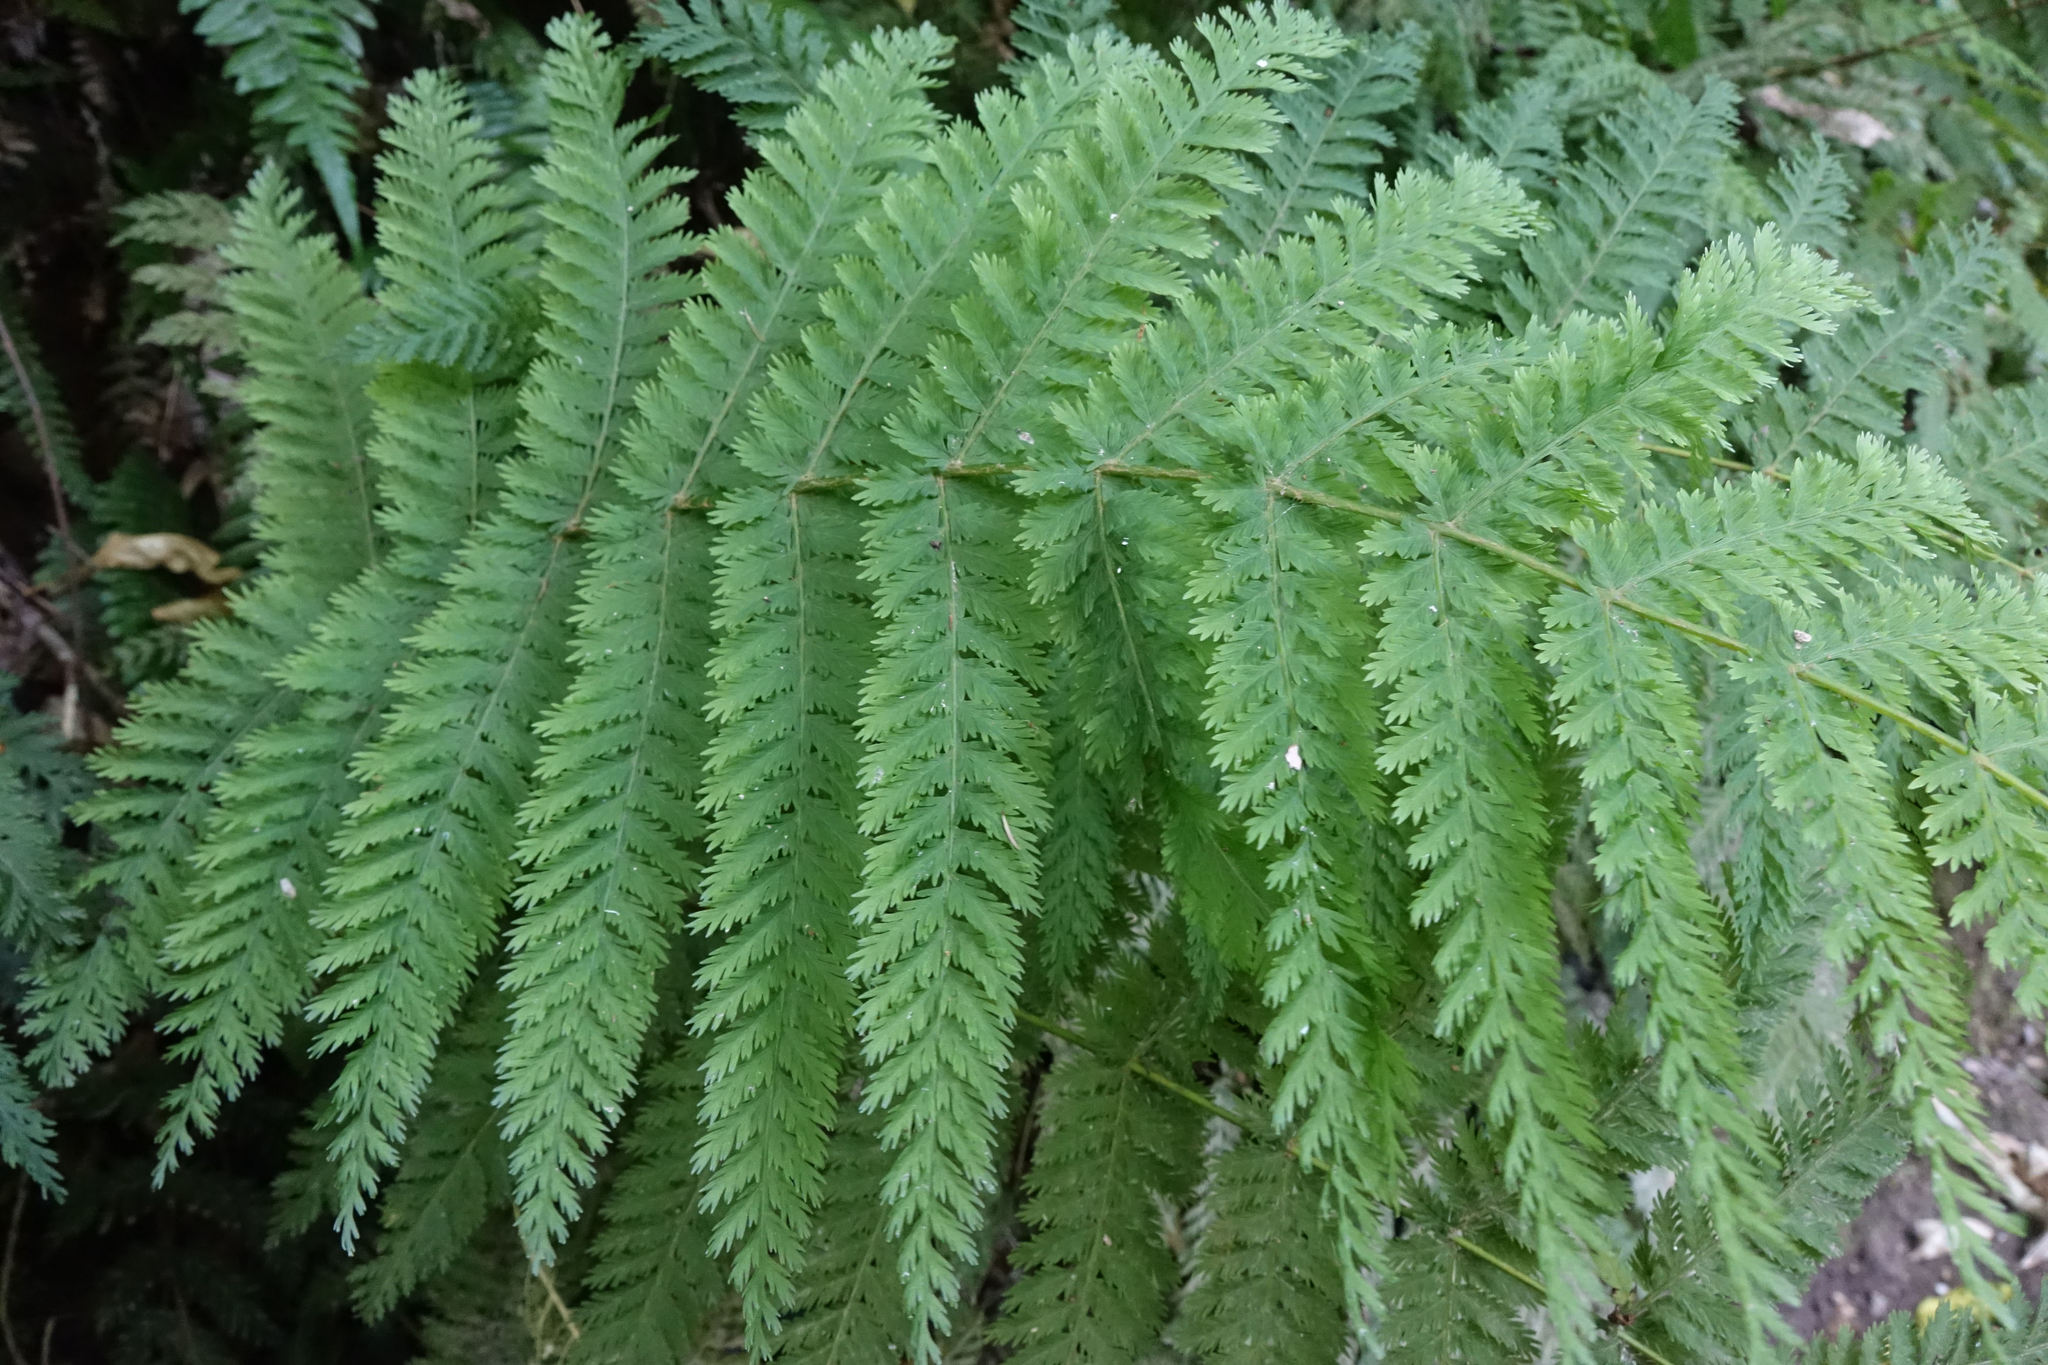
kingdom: Plantae
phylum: Tracheophyta
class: Polypodiopsida
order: Osmundales
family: Osmundaceae
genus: Leptopteris
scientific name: Leptopteris hymenophylloides
